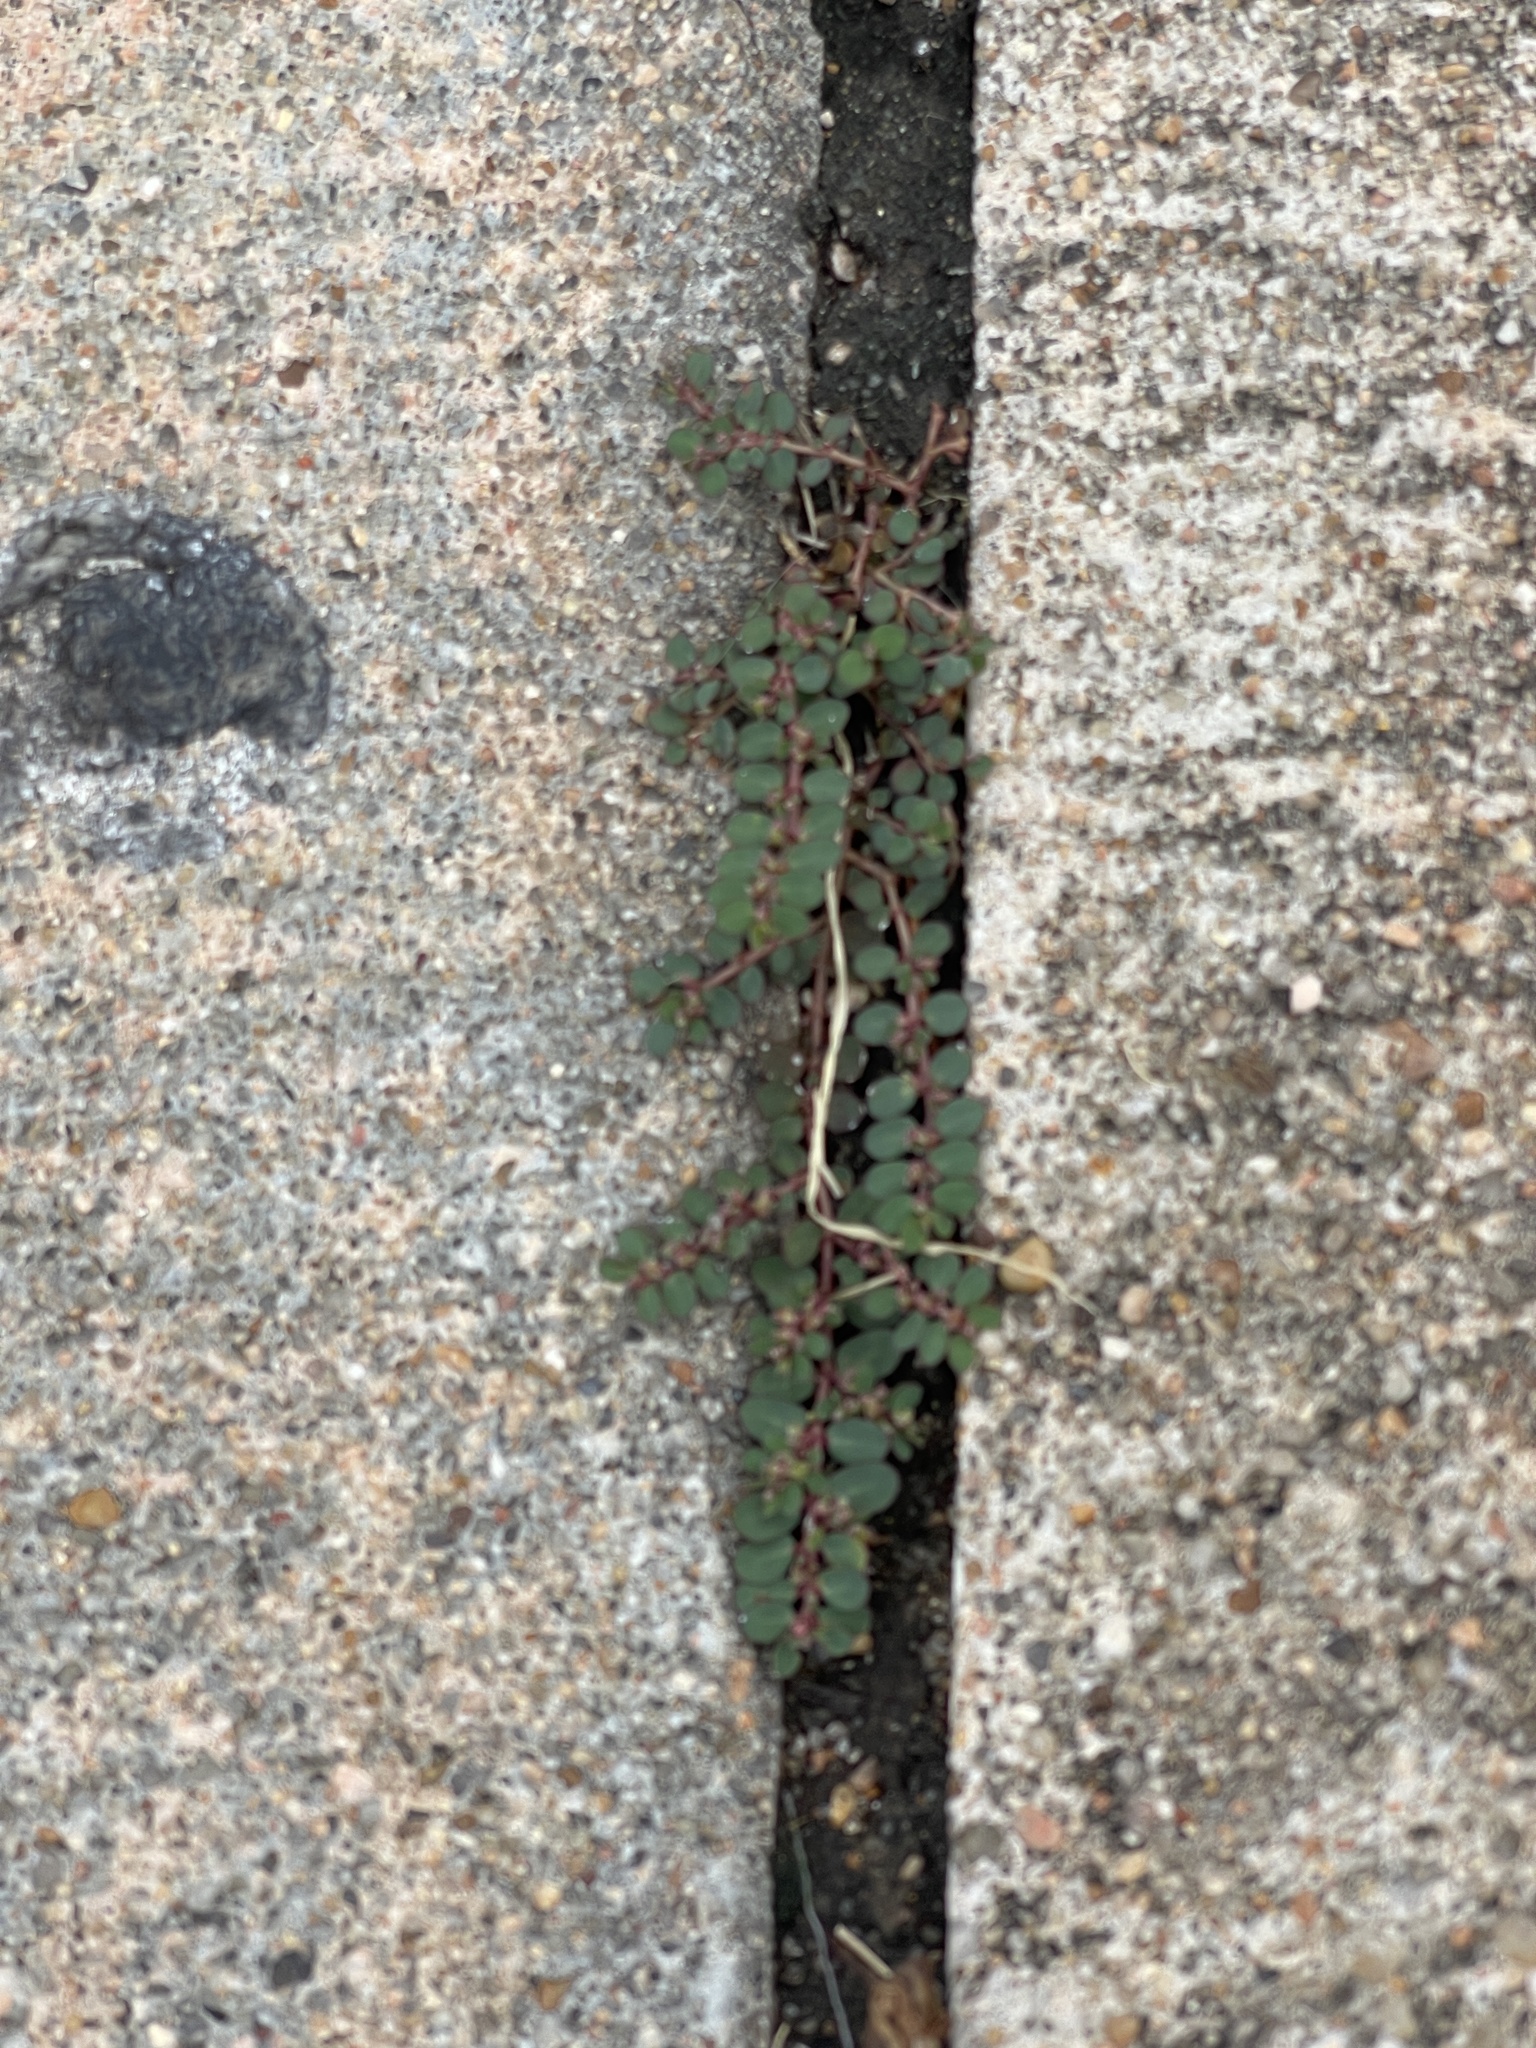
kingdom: Plantae
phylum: Tracheophyta
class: Magnoliopsida
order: Malpighiales
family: Euphorbiaceae
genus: Euphorbia
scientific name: Euphorbia prostrata
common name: Prostrate sandmat
